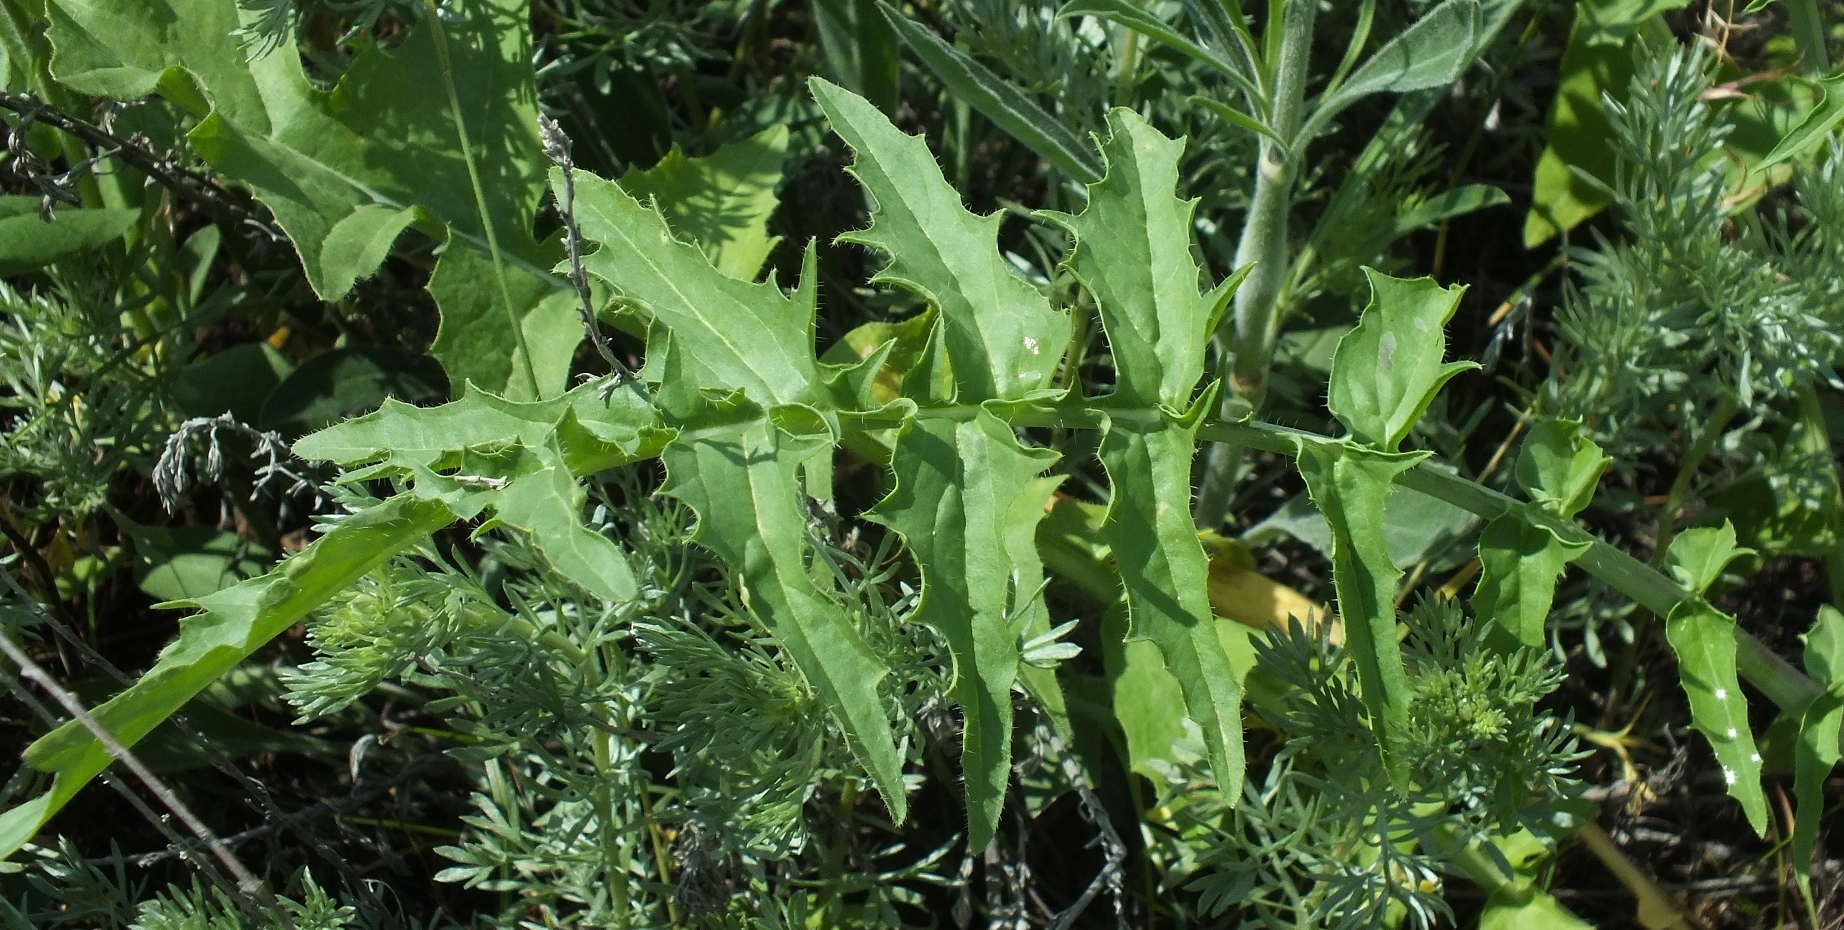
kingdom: Plantae
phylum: Tracheophyta
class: Magnoliopsida
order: Brassicales
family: Brassicaceae
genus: Sisymbrium
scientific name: Sisymbrium altissimum
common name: Tall rocket
